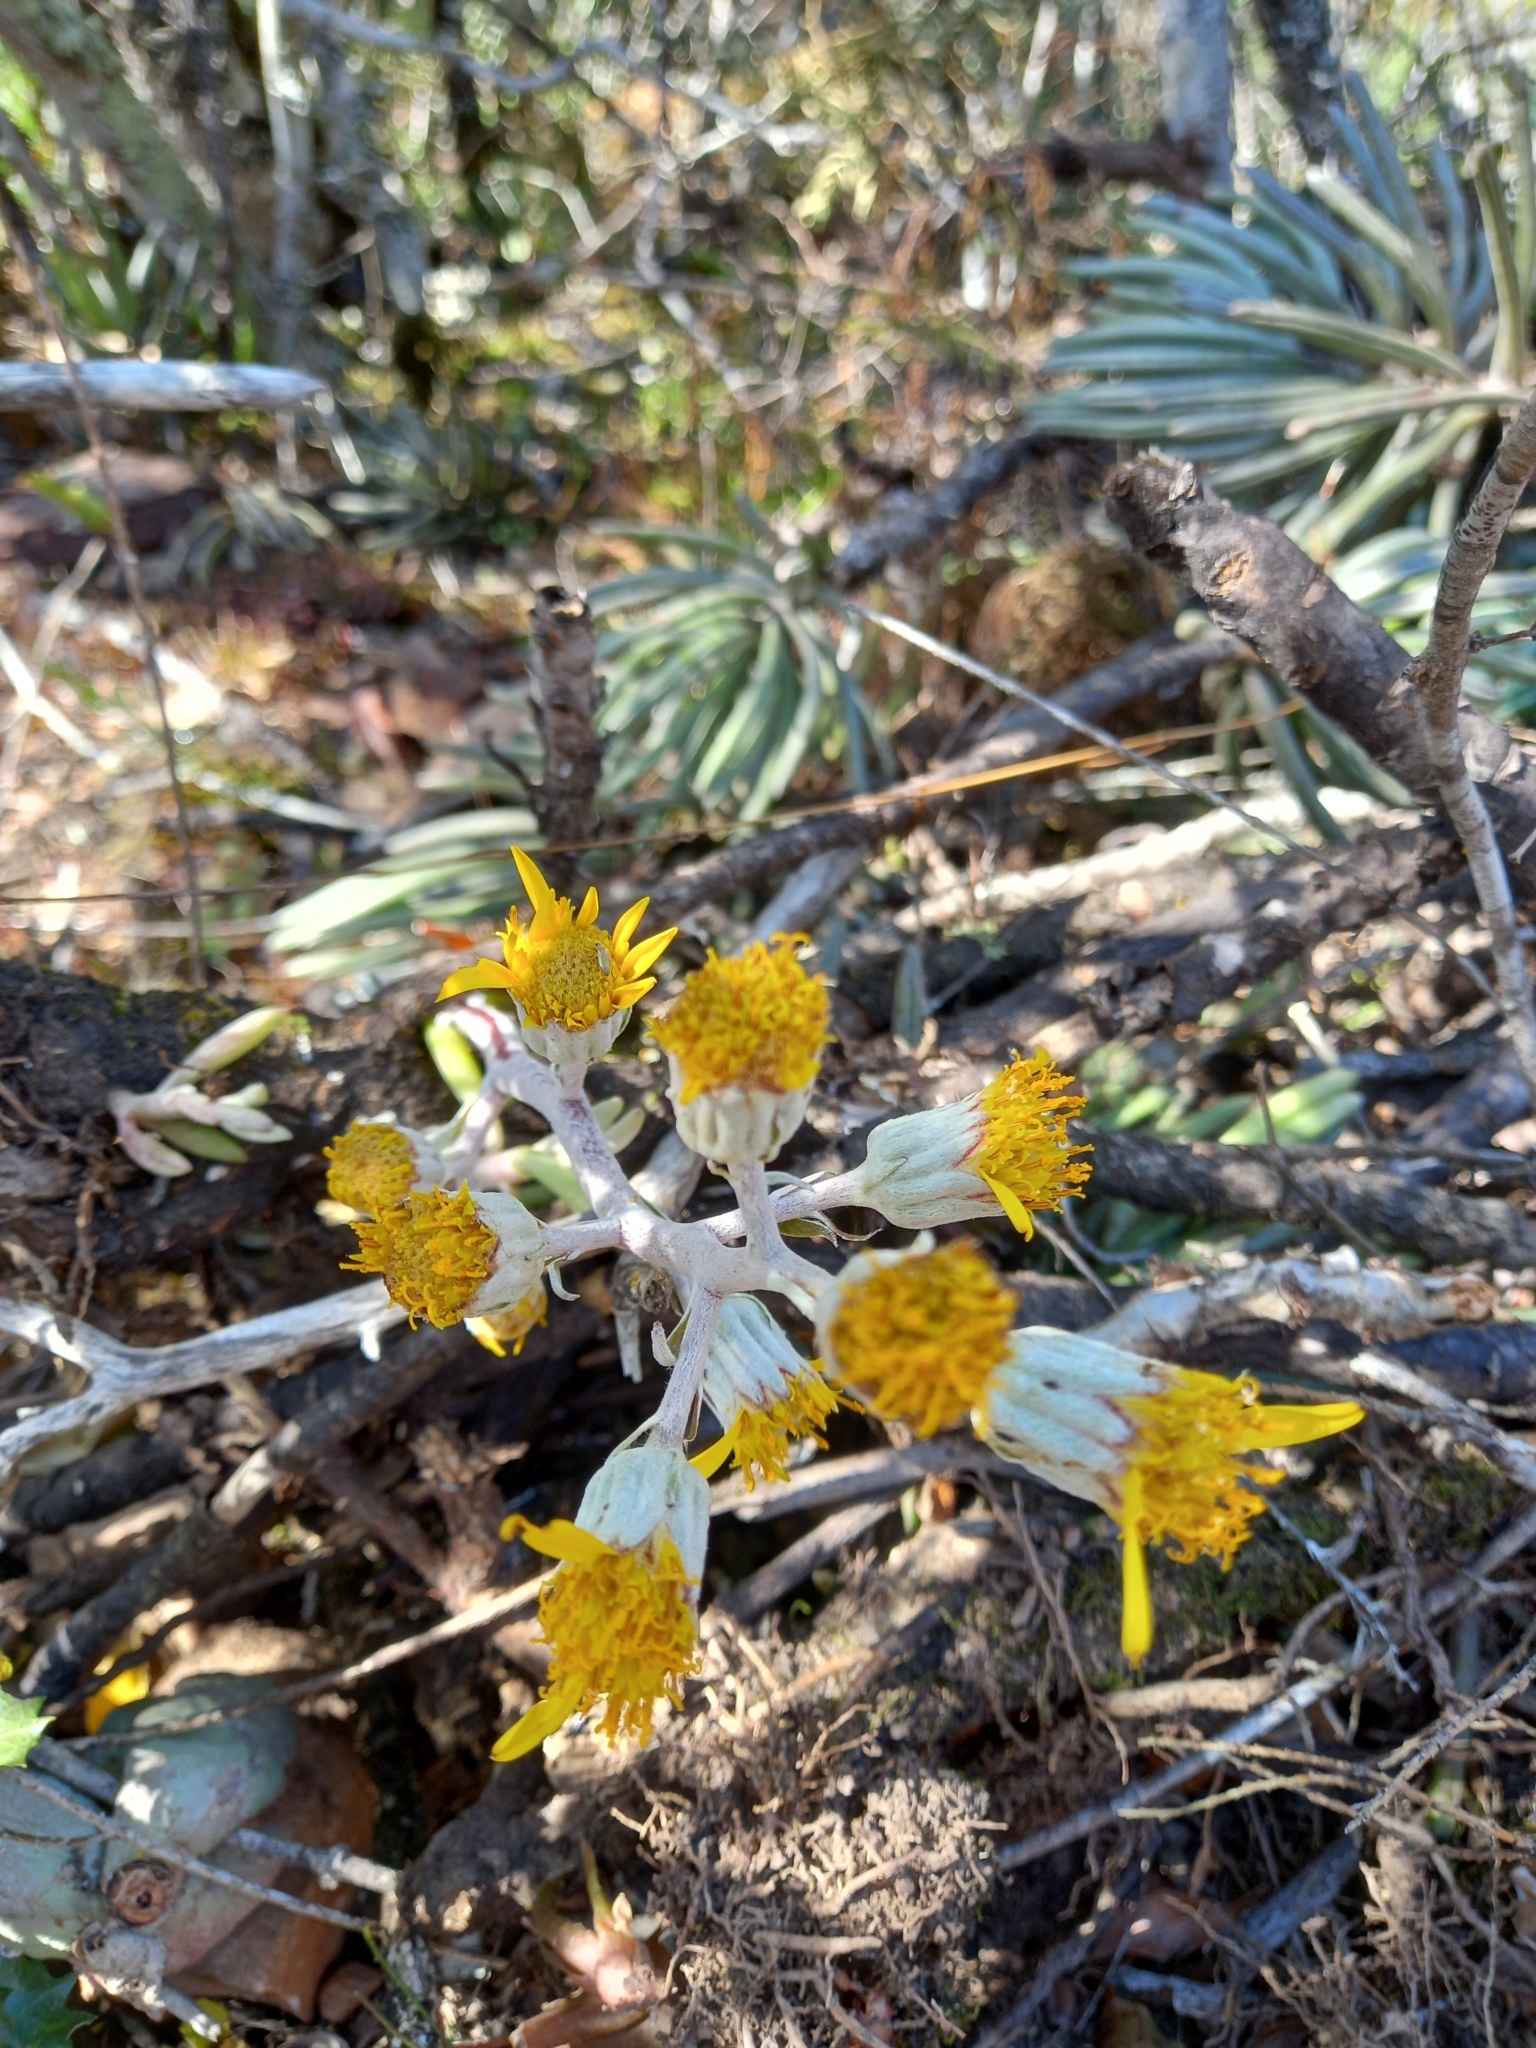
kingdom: Plantae
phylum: Tracheophyta
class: Magnoliopsida
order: Asterales
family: Asteraceae
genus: Caputia
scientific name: Caputia pyramidata
